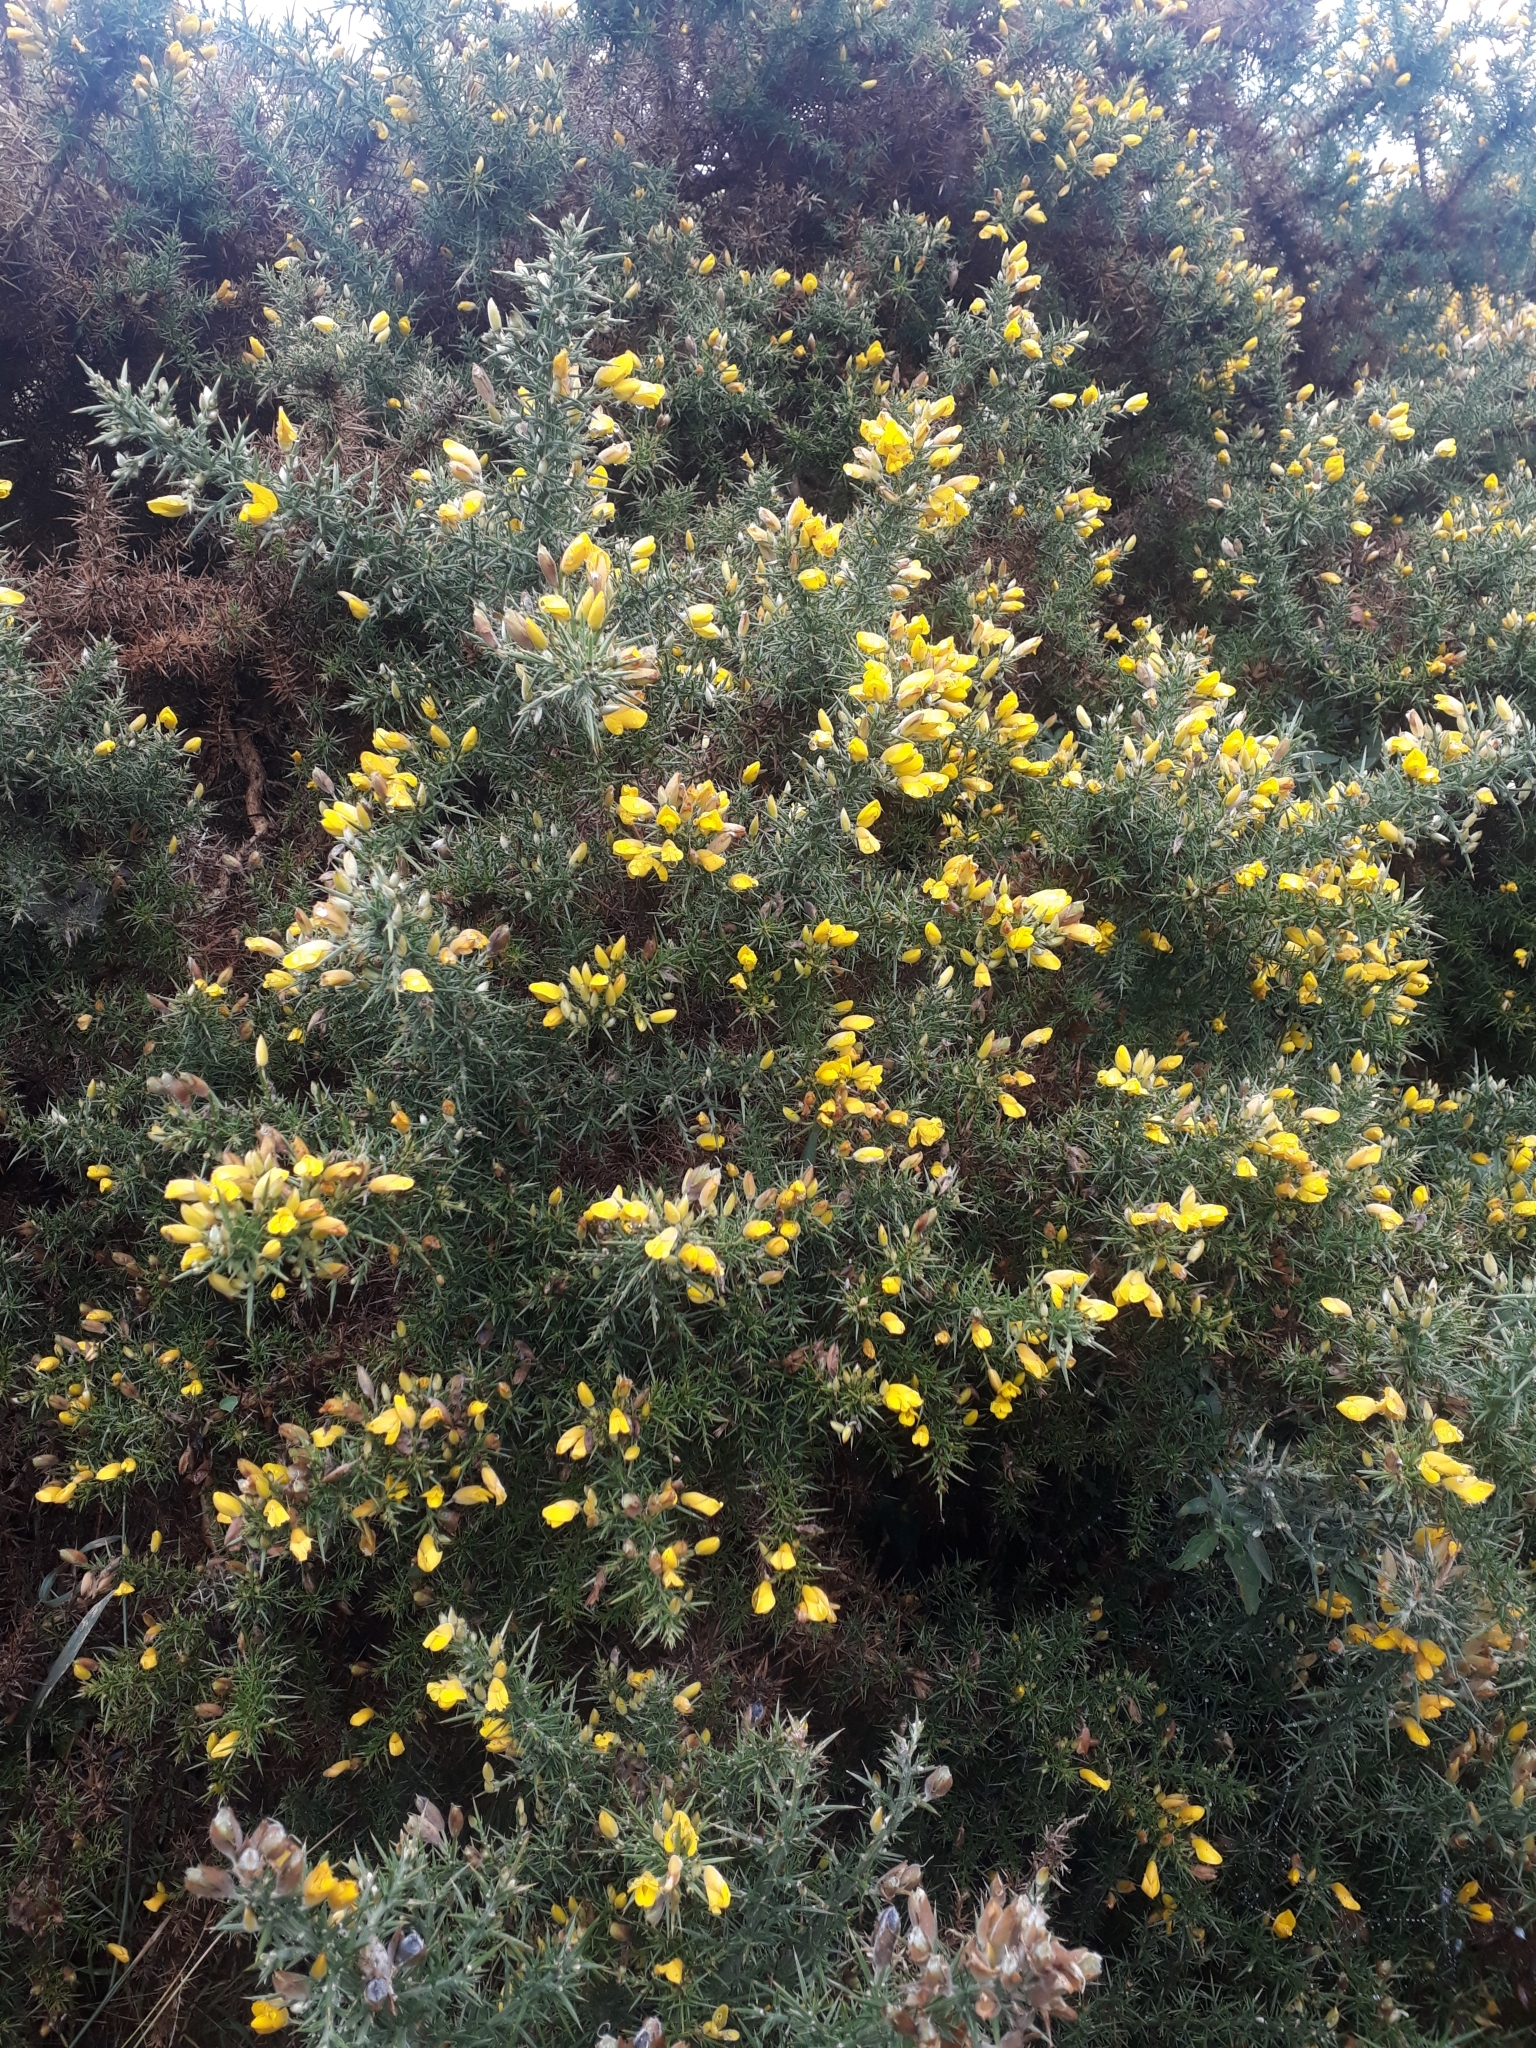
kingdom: Plantae
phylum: Tracheophyta
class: Magnoliopsida
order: Fabales
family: Fabaceae
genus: Ulex
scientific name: Ulex europaeus
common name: Common gorse
